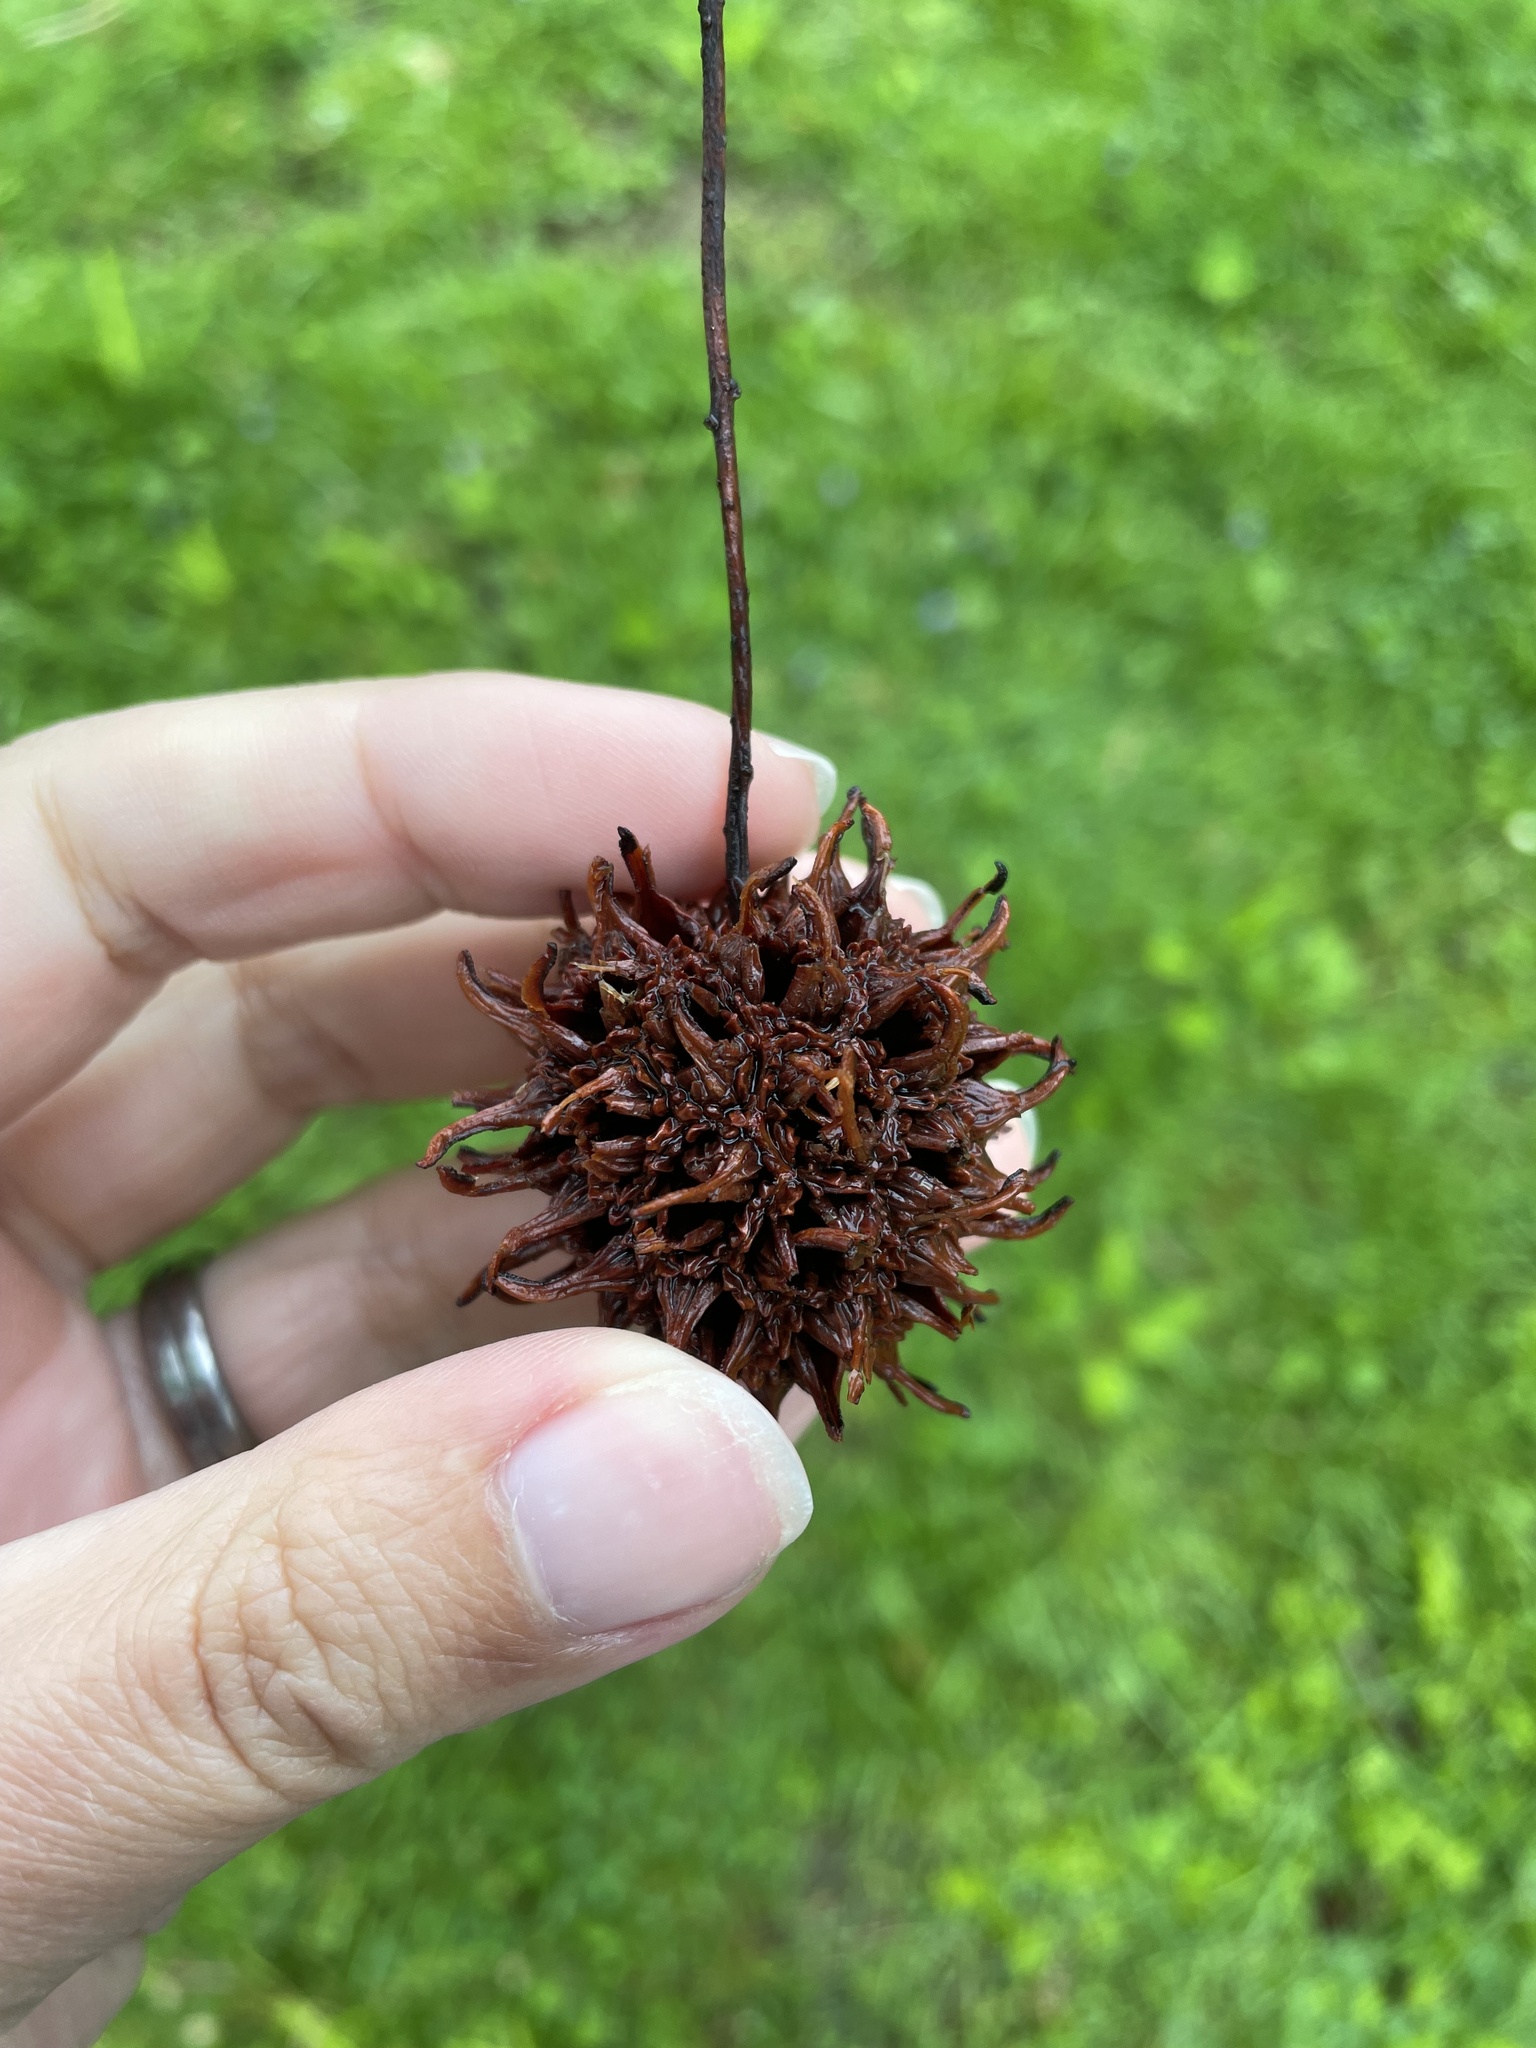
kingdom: Plantae
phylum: Tracheophyta
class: Magnoliopsida
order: Saxifragales
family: Altingiaceae
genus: Liquidambar
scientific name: Liquidambar styraciflua
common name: Sweet gum
